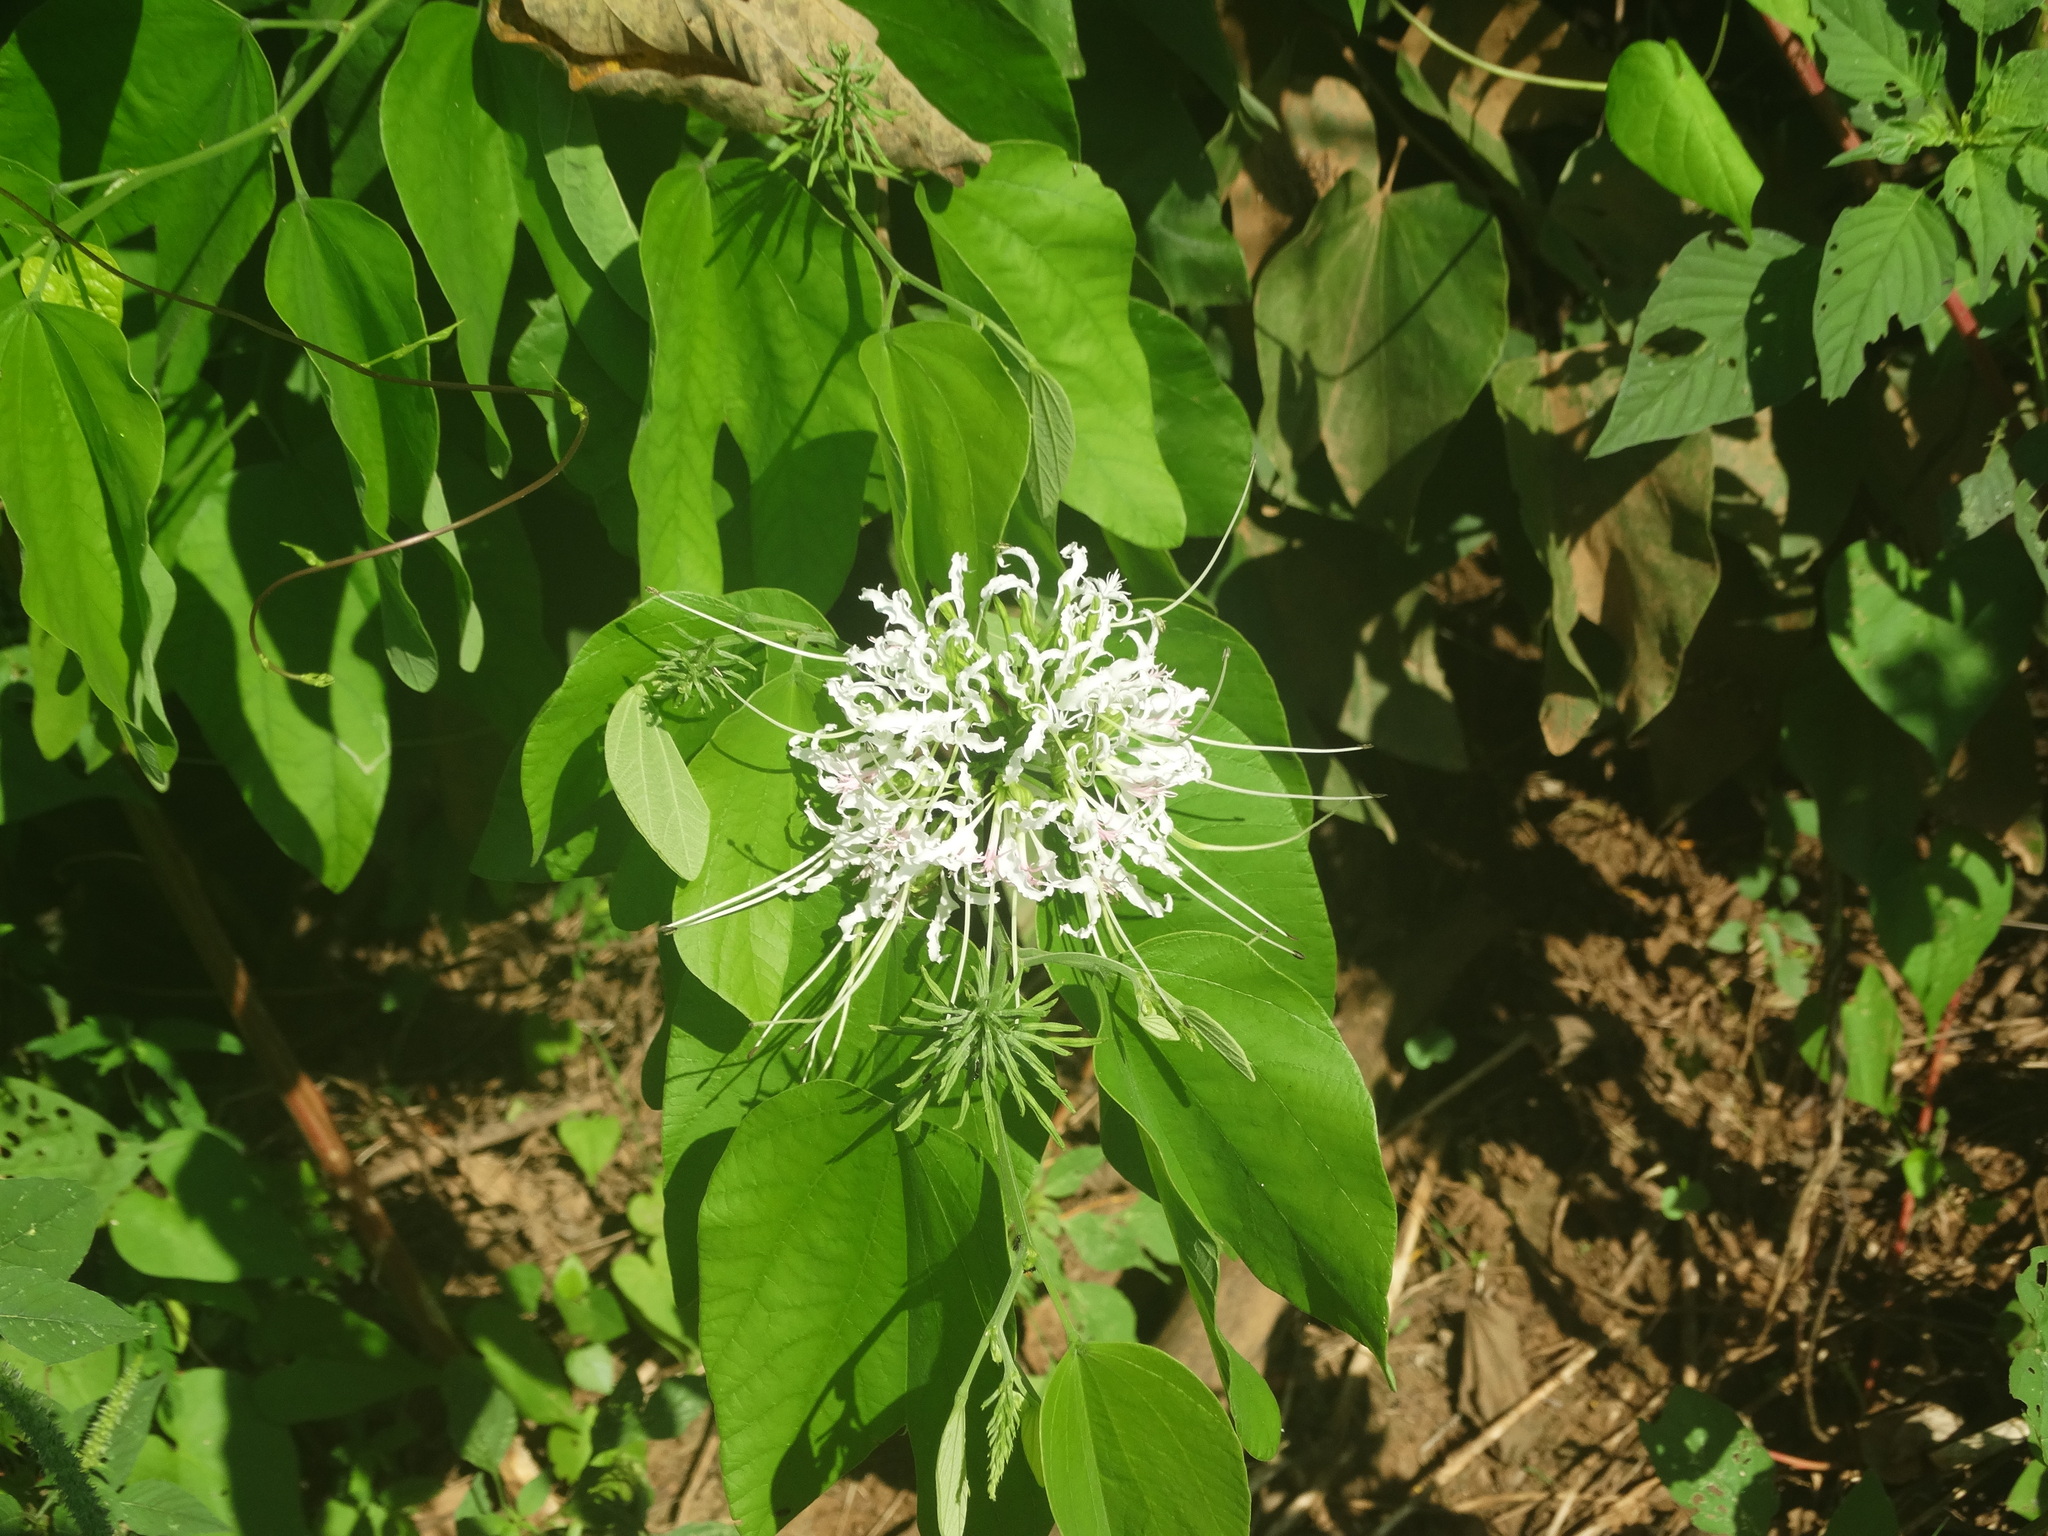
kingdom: Plantae
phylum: Tracheophyta
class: Magnoliopsida
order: Fabales
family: Fabaceae
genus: Bauhinia
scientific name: Bauhinia divaricata
